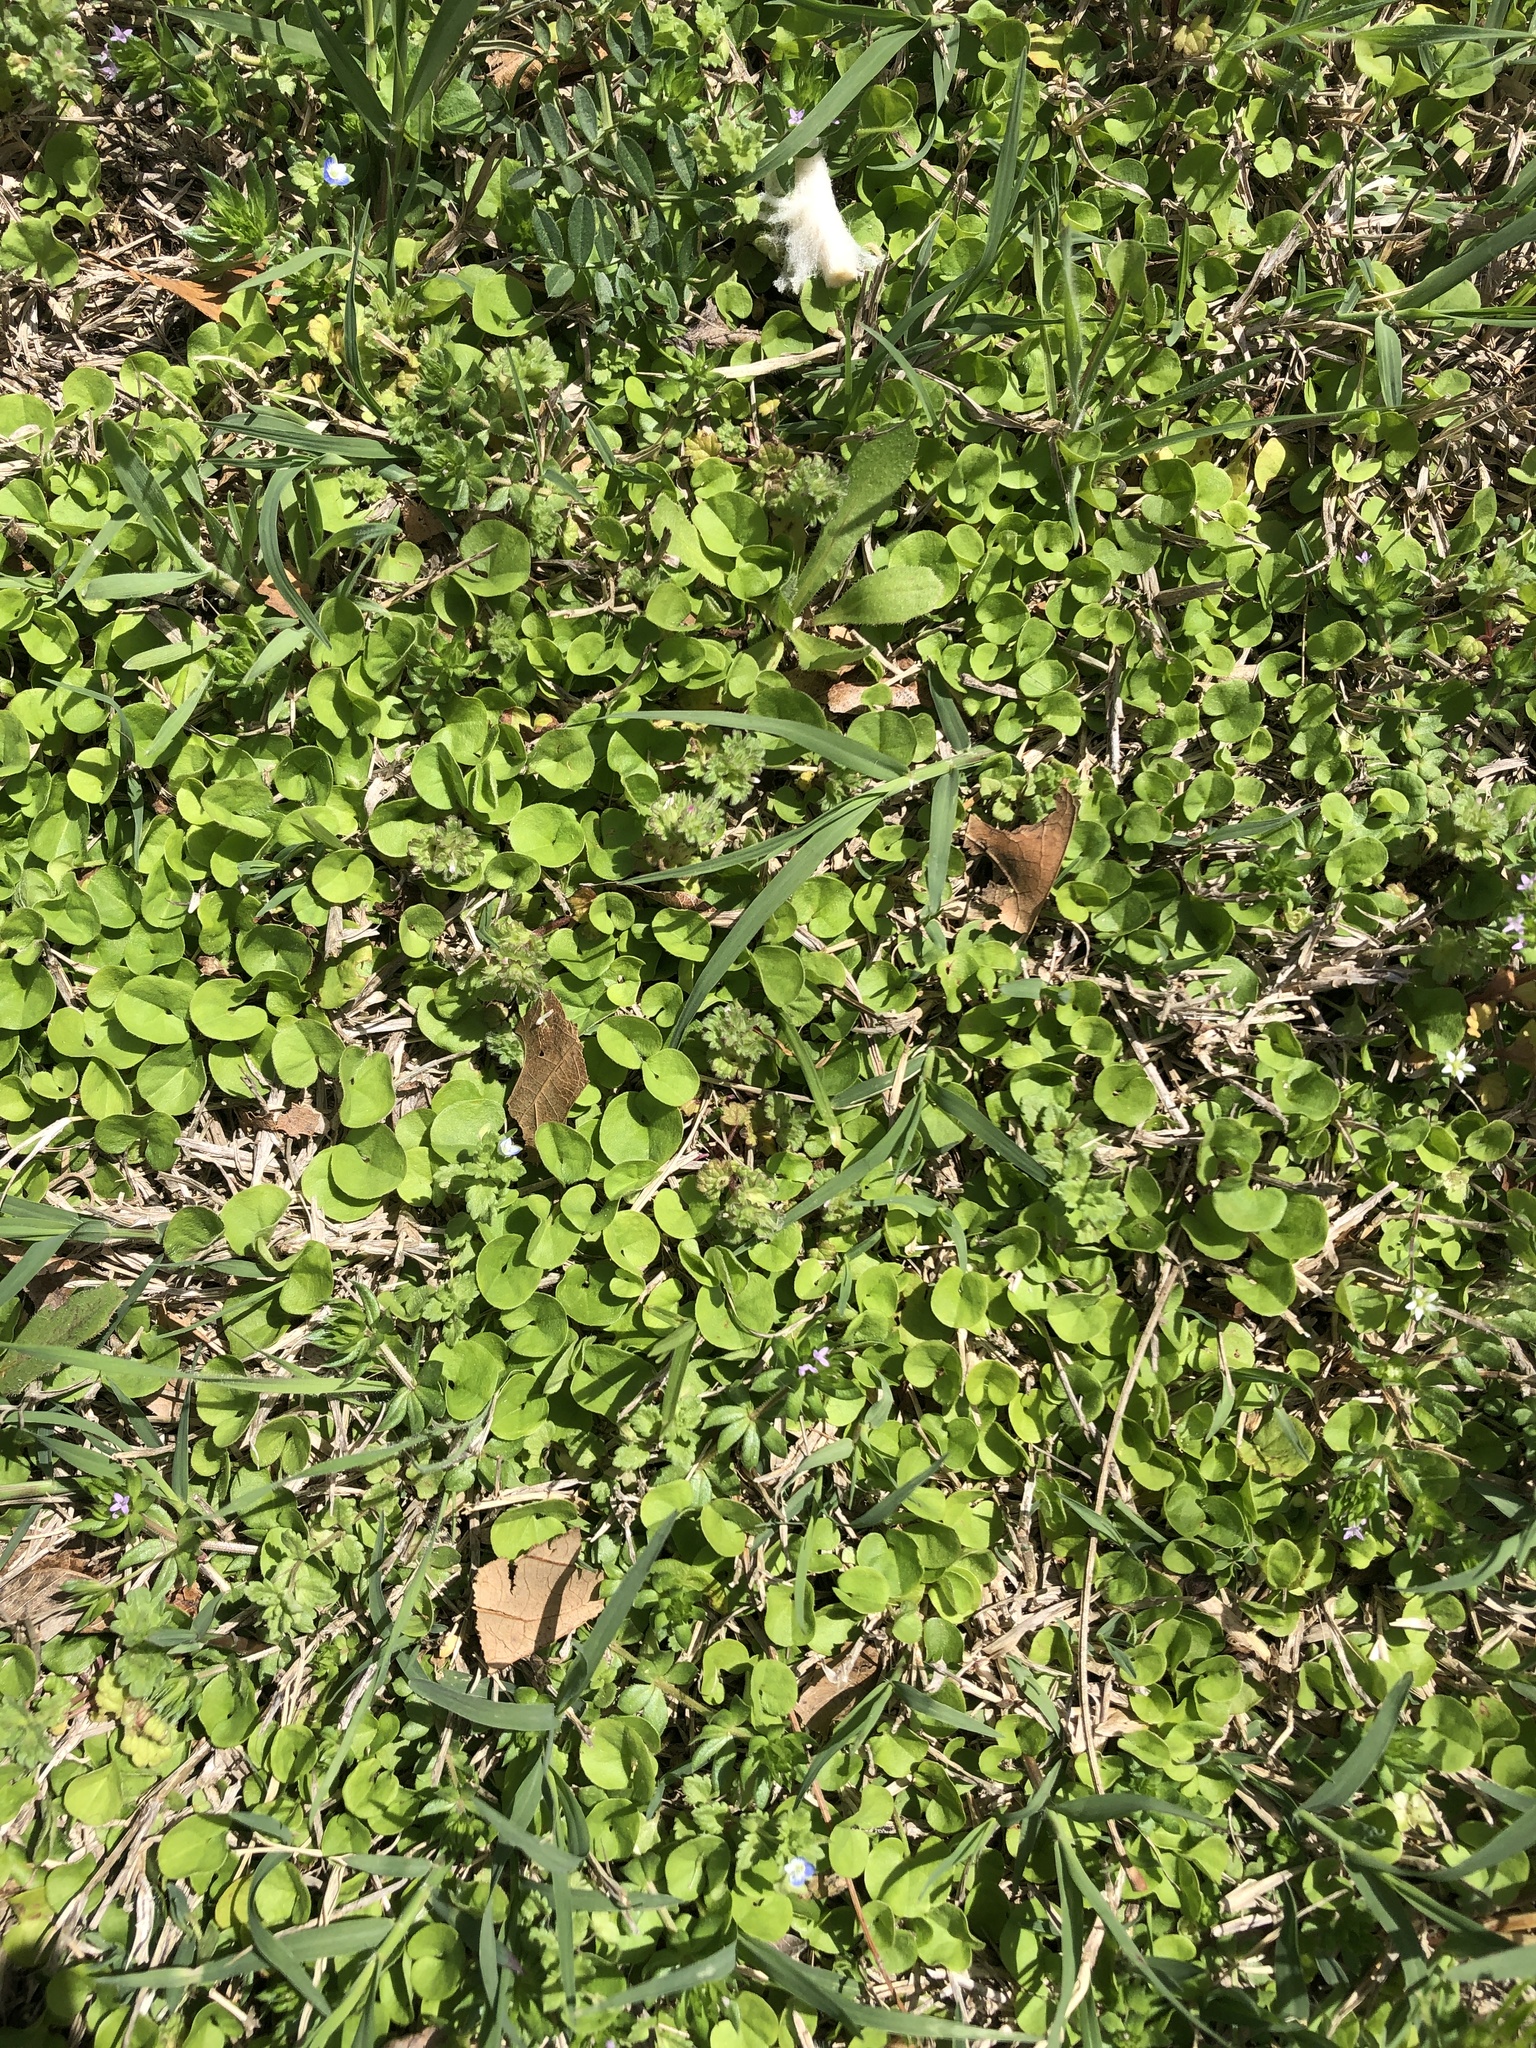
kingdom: Plantae
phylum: Tracheophyta
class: Magnoliopsida
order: Solanales
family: Convolvulaceae
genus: Dichondra
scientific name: Dichondra carolinensis
